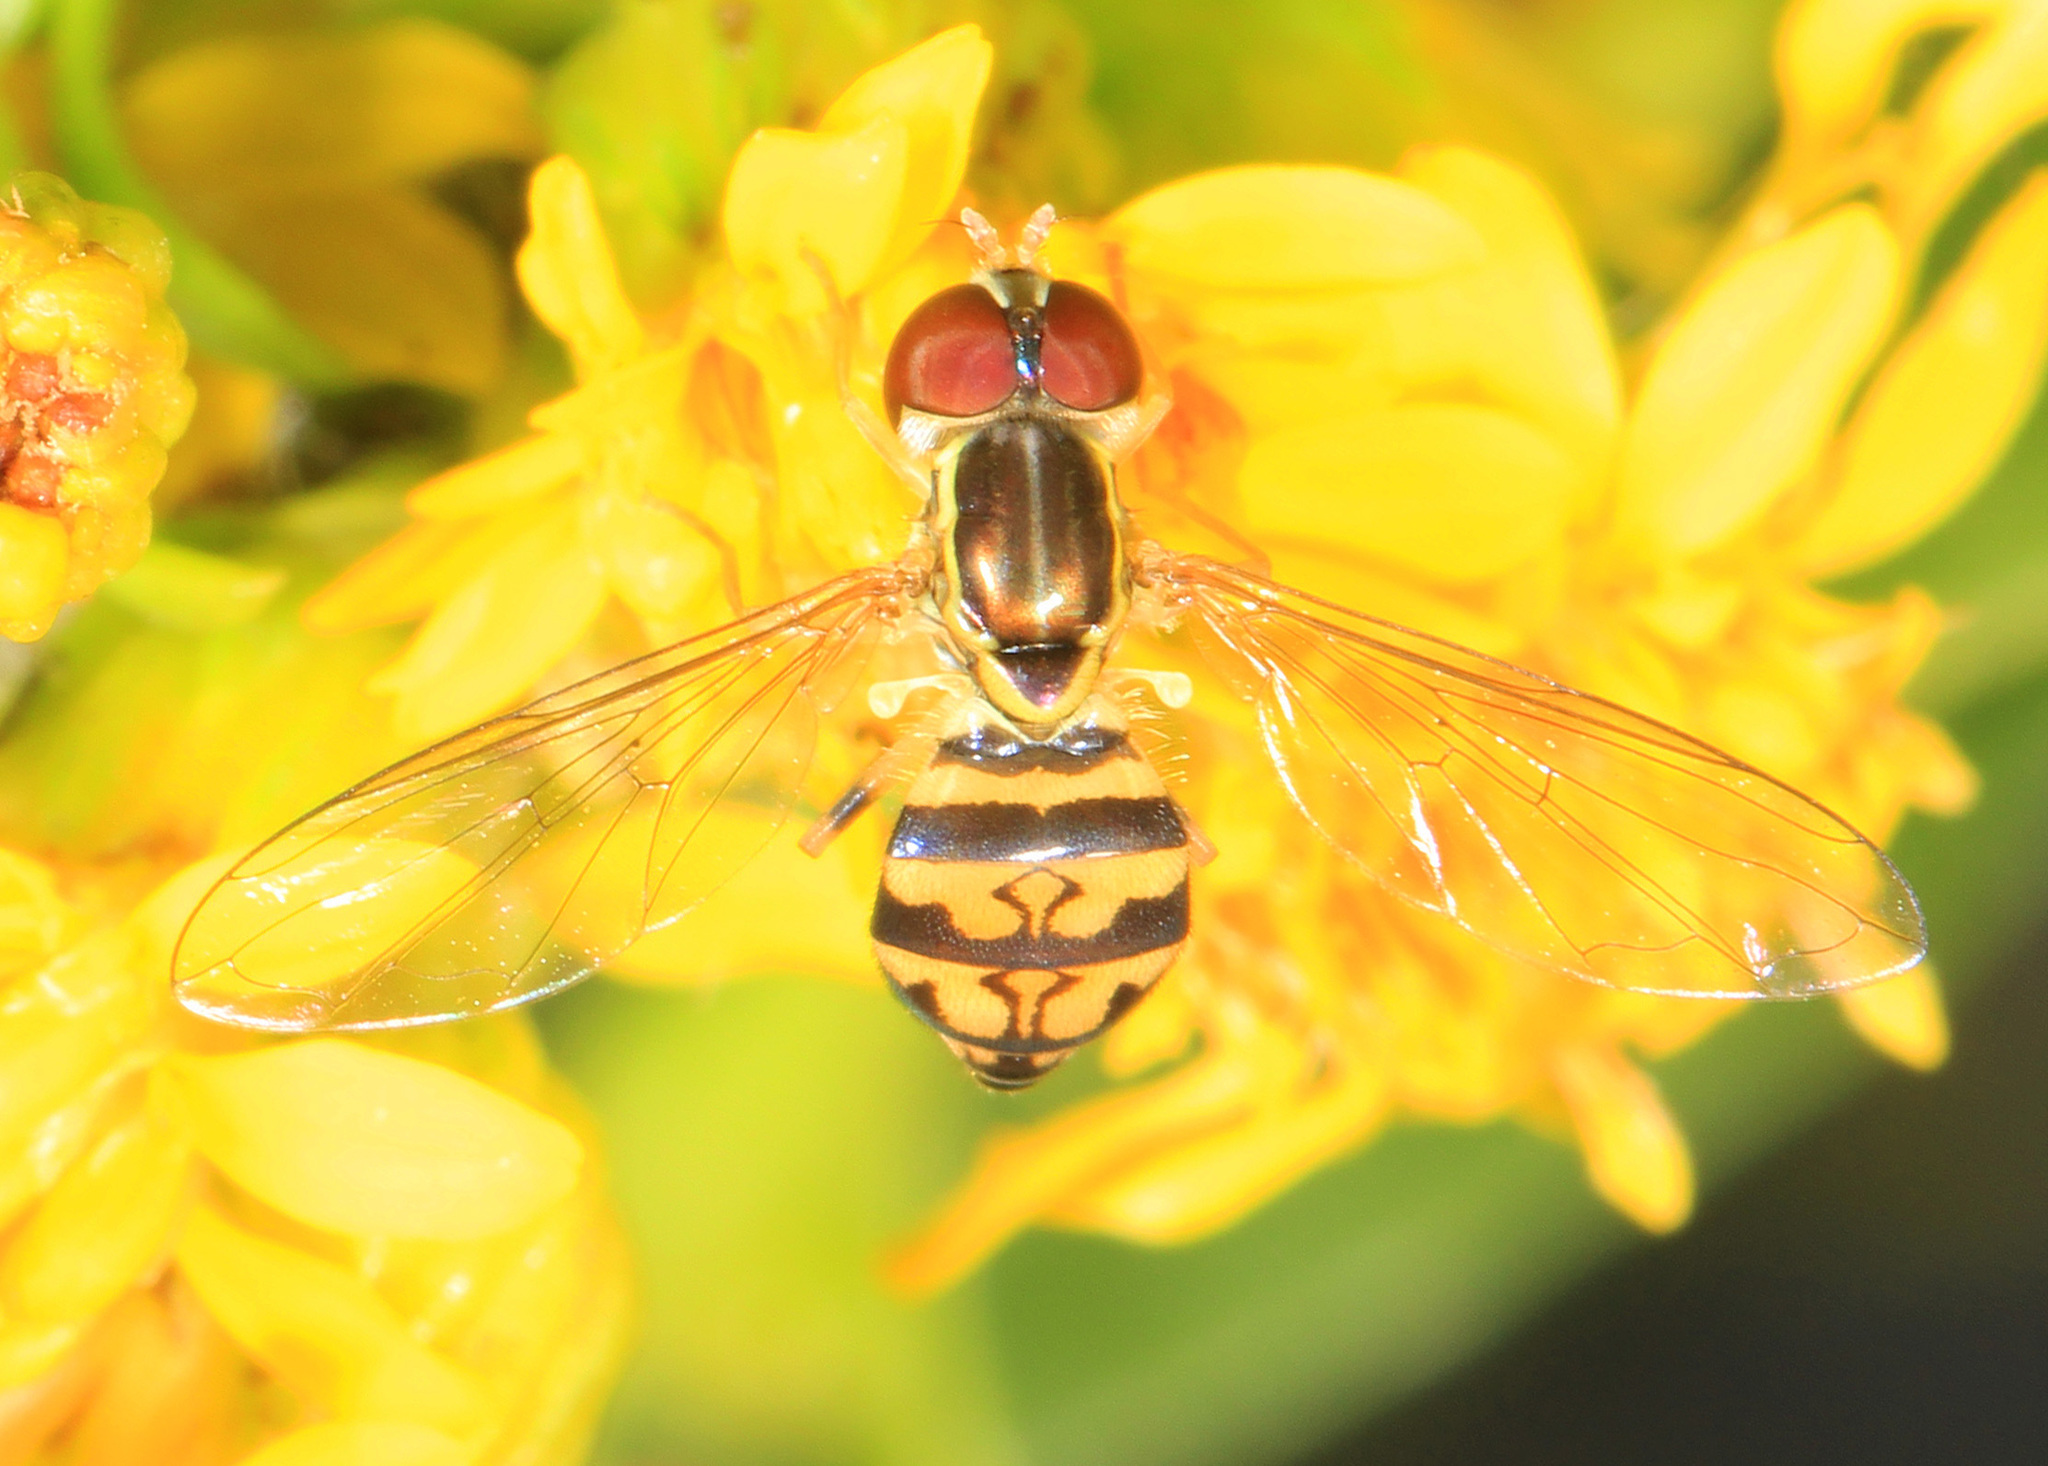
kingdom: Animalia
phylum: Arthropoda
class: Insecta
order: Diptera
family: Syrphidae
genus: Toxomerus
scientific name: Toxomerus geminatus
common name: Eastern calligrapher
